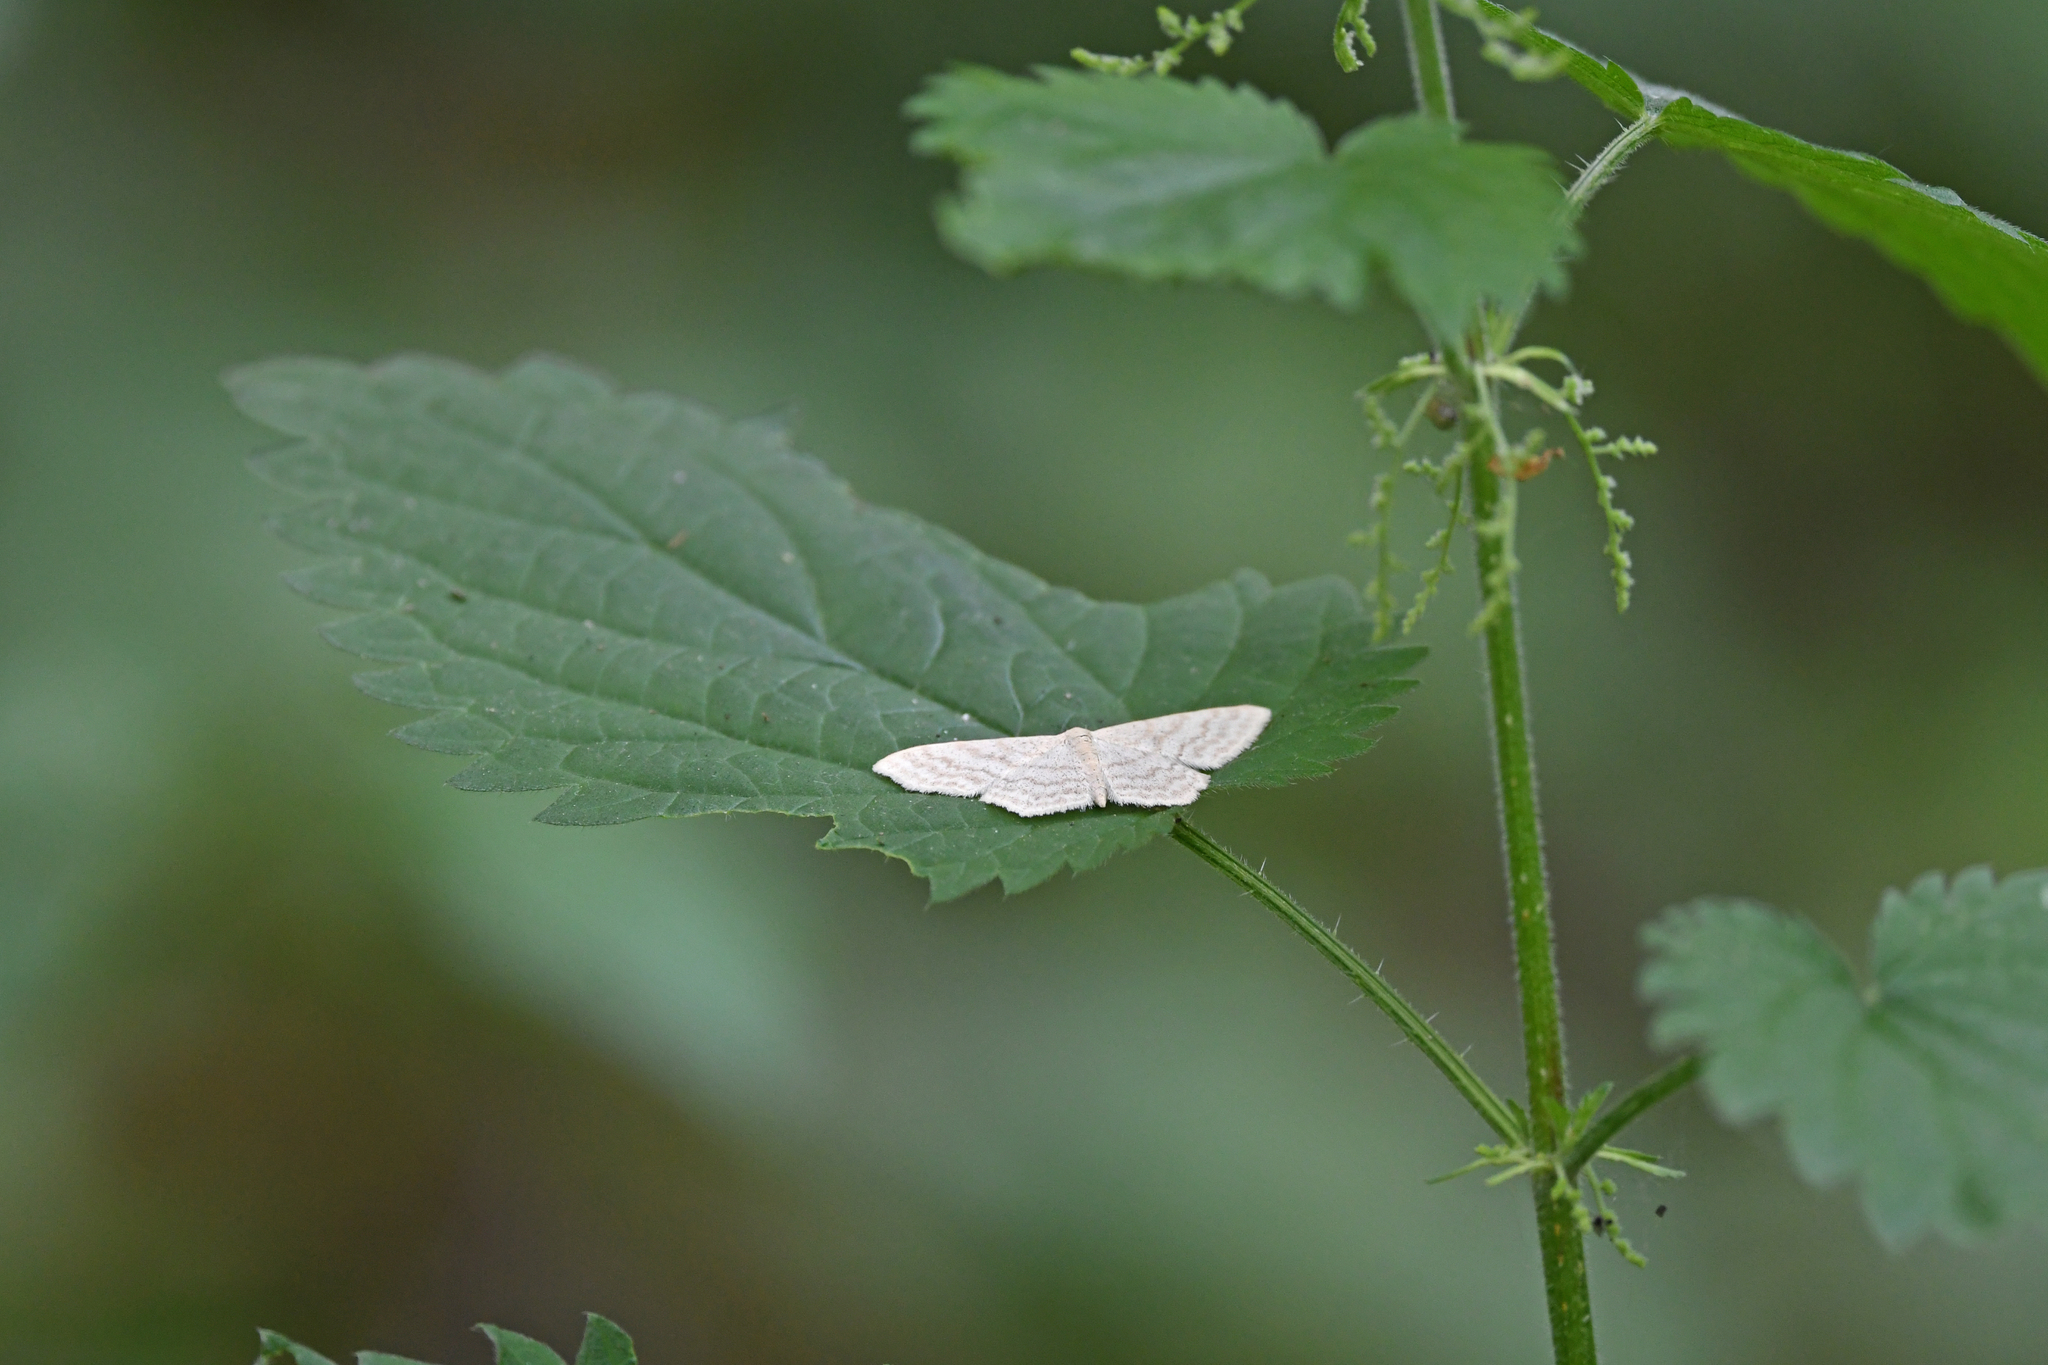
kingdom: Animalia
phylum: Arthropoda
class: Insecta
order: Lepidoptera
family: Geometridae
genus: Scopula
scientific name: Scopula floslactata
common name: Cream wave
